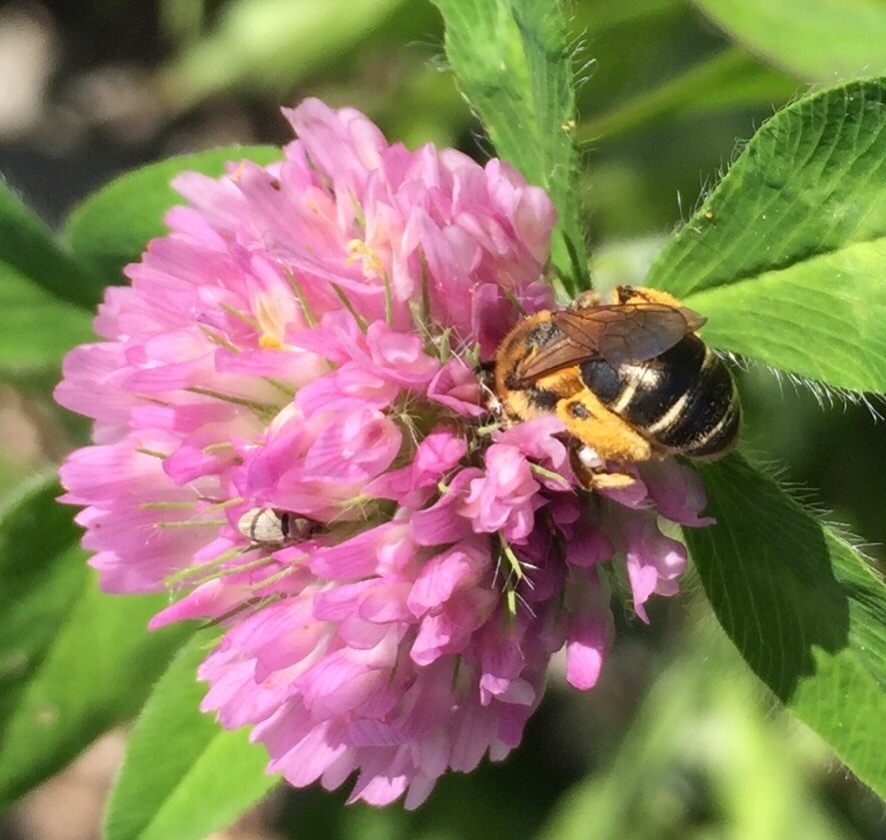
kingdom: Animalia
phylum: Arthropoda
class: Insecta
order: Hymenoptera
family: Andrenidae
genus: Andrena
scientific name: Andrena wilkella
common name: Wilke's mining bee
